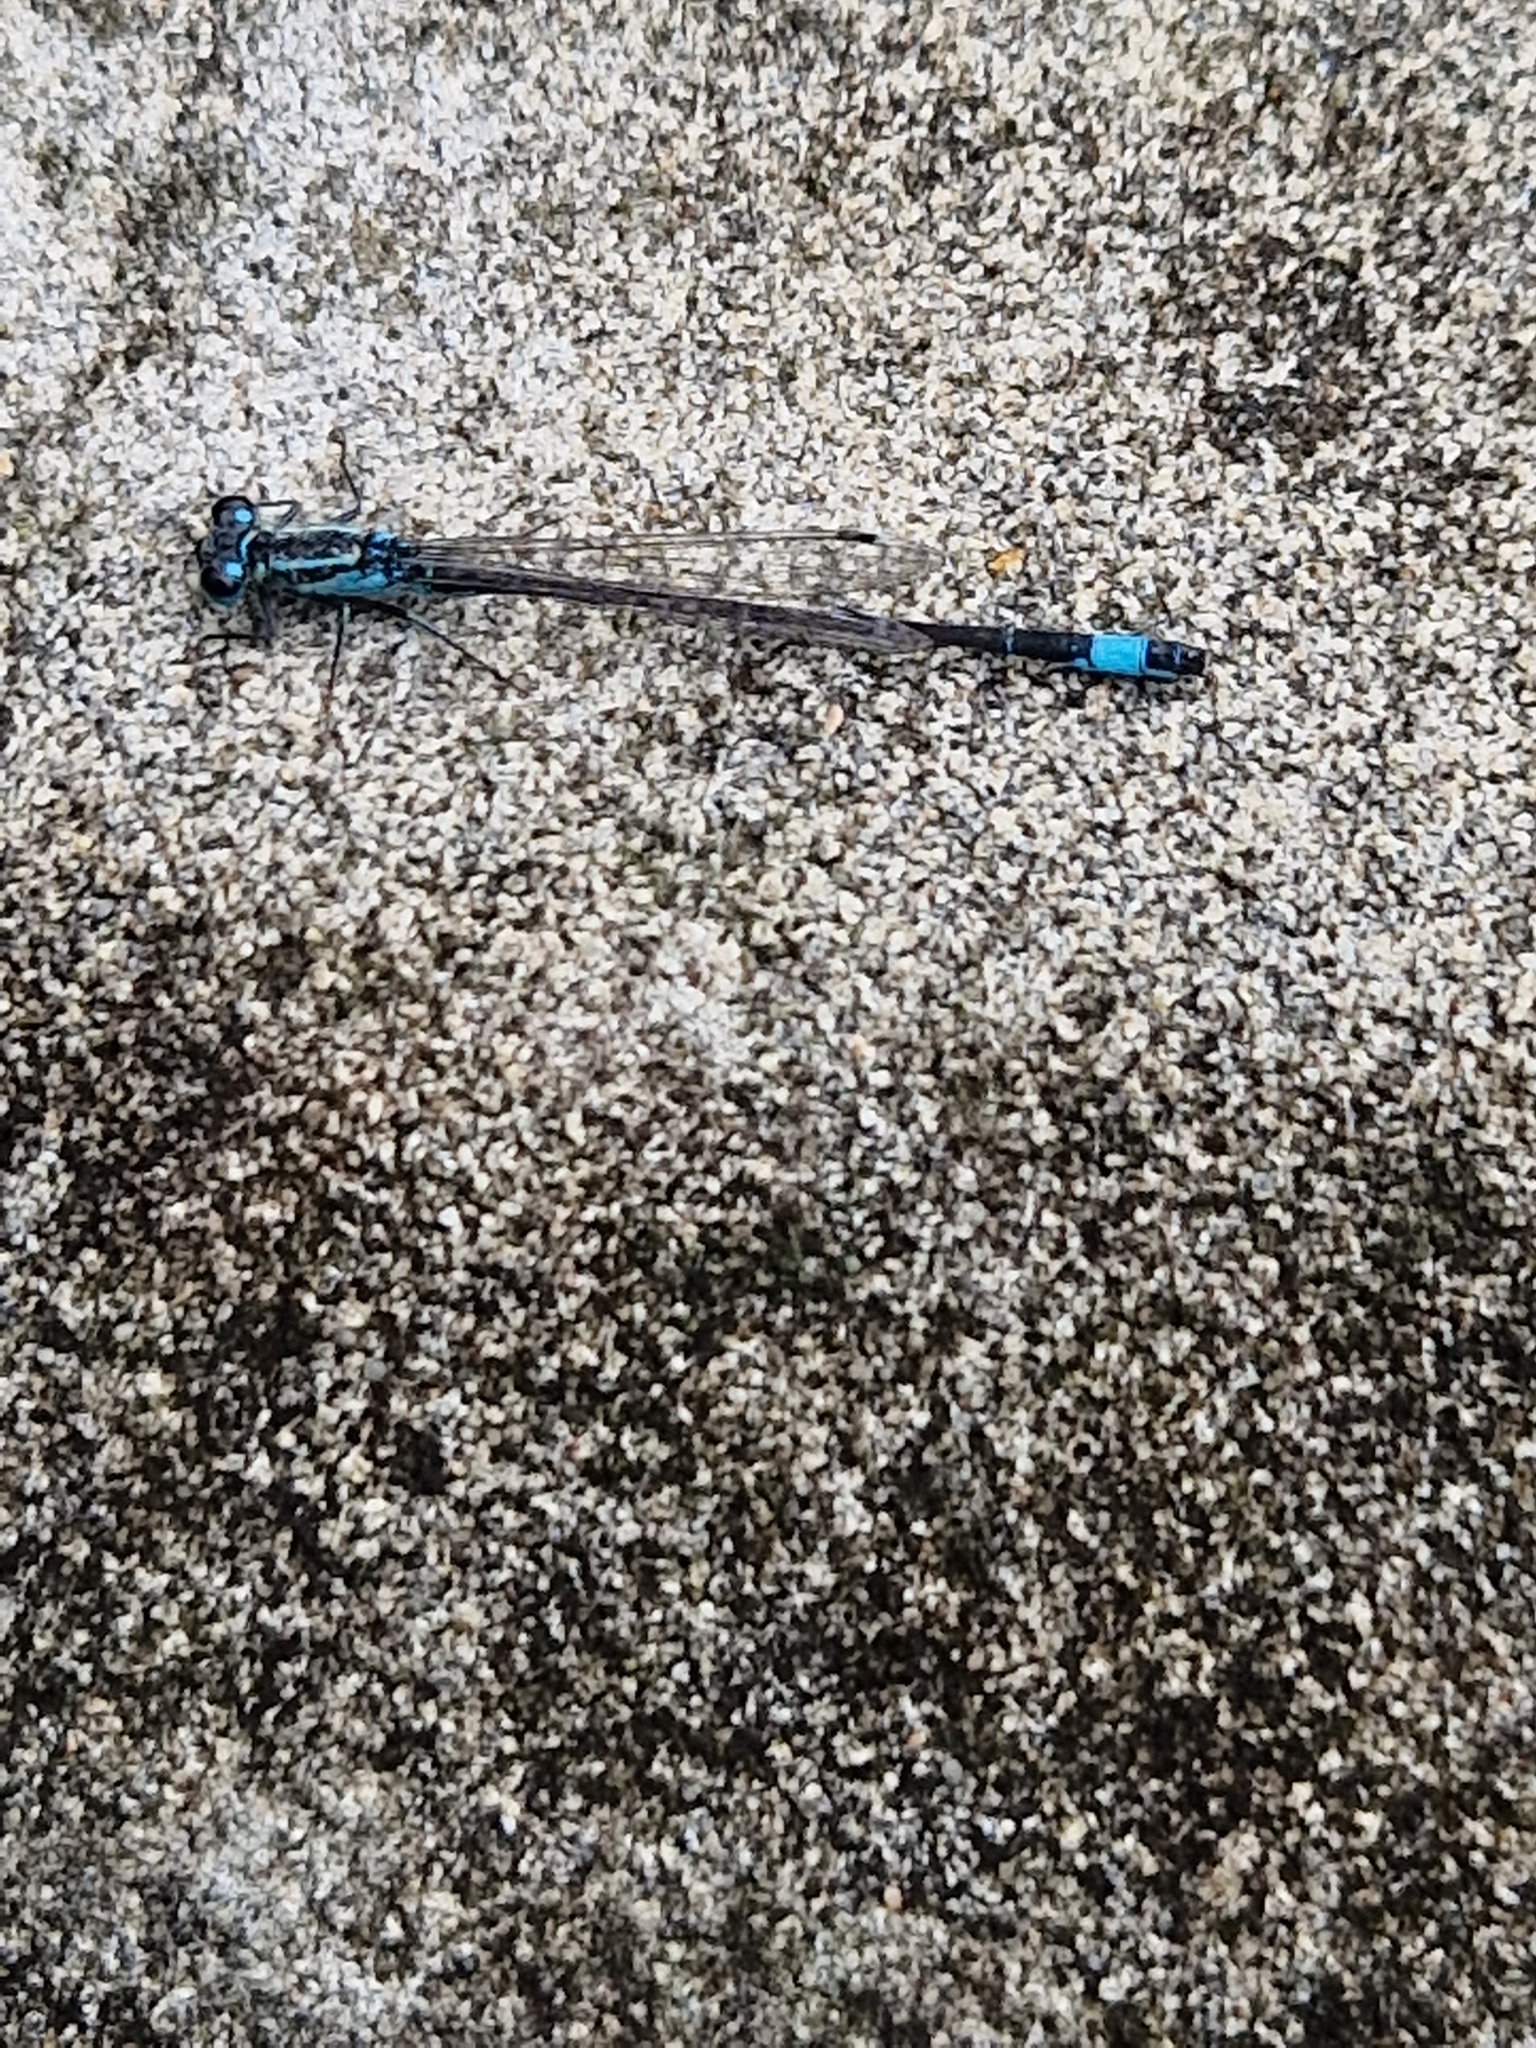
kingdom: Animalia
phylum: Arthropoda
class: Insecta
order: Odonata
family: Coenagrionidae
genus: Ischnura
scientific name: Ischnura elegans
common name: Blue-tailed damselfly
